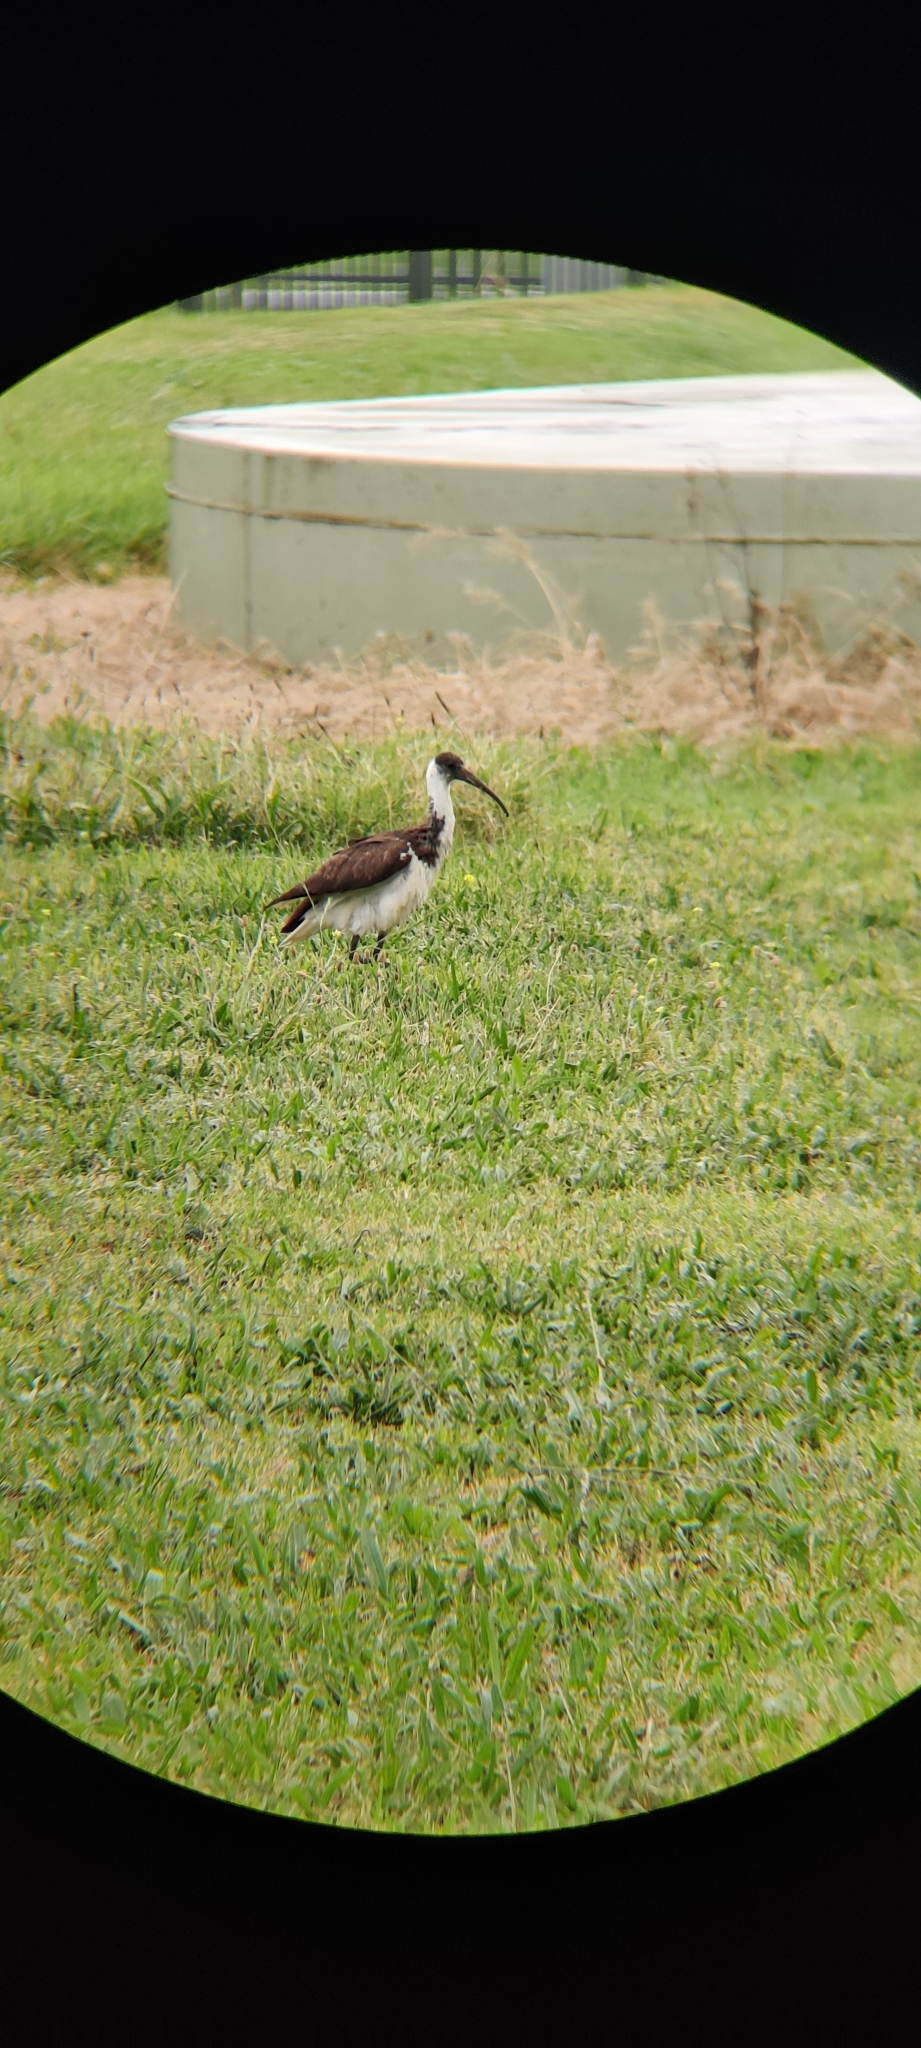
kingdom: Animalia
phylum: Chordata
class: Aves
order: Pelecaniformes
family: Threskiornithidae
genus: Threskiornis
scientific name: Threskiornis spinicollis
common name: Straw-necked ibis
